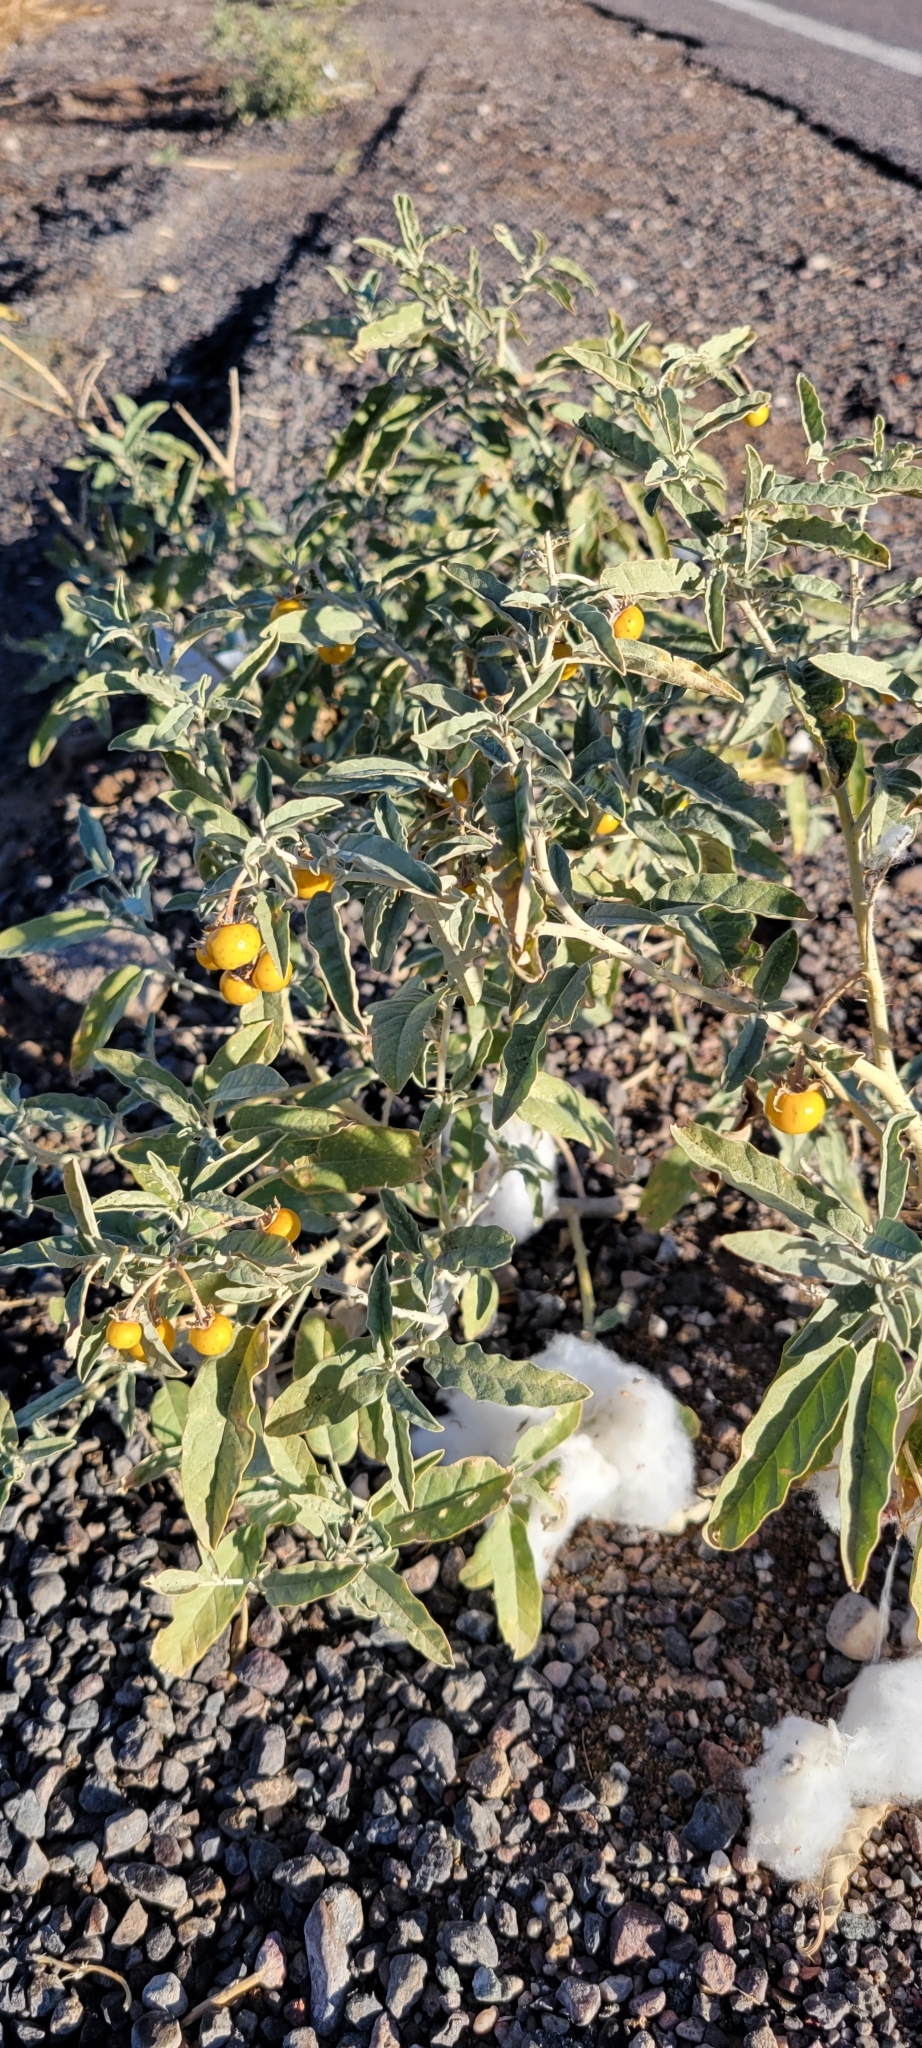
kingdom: Plantae
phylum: Tracheophyta
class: Magnoliopsida
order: Solanales
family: Solanaceae
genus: Solanum
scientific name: Solanum elaeagnifolium
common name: Silverleaf nightshade
